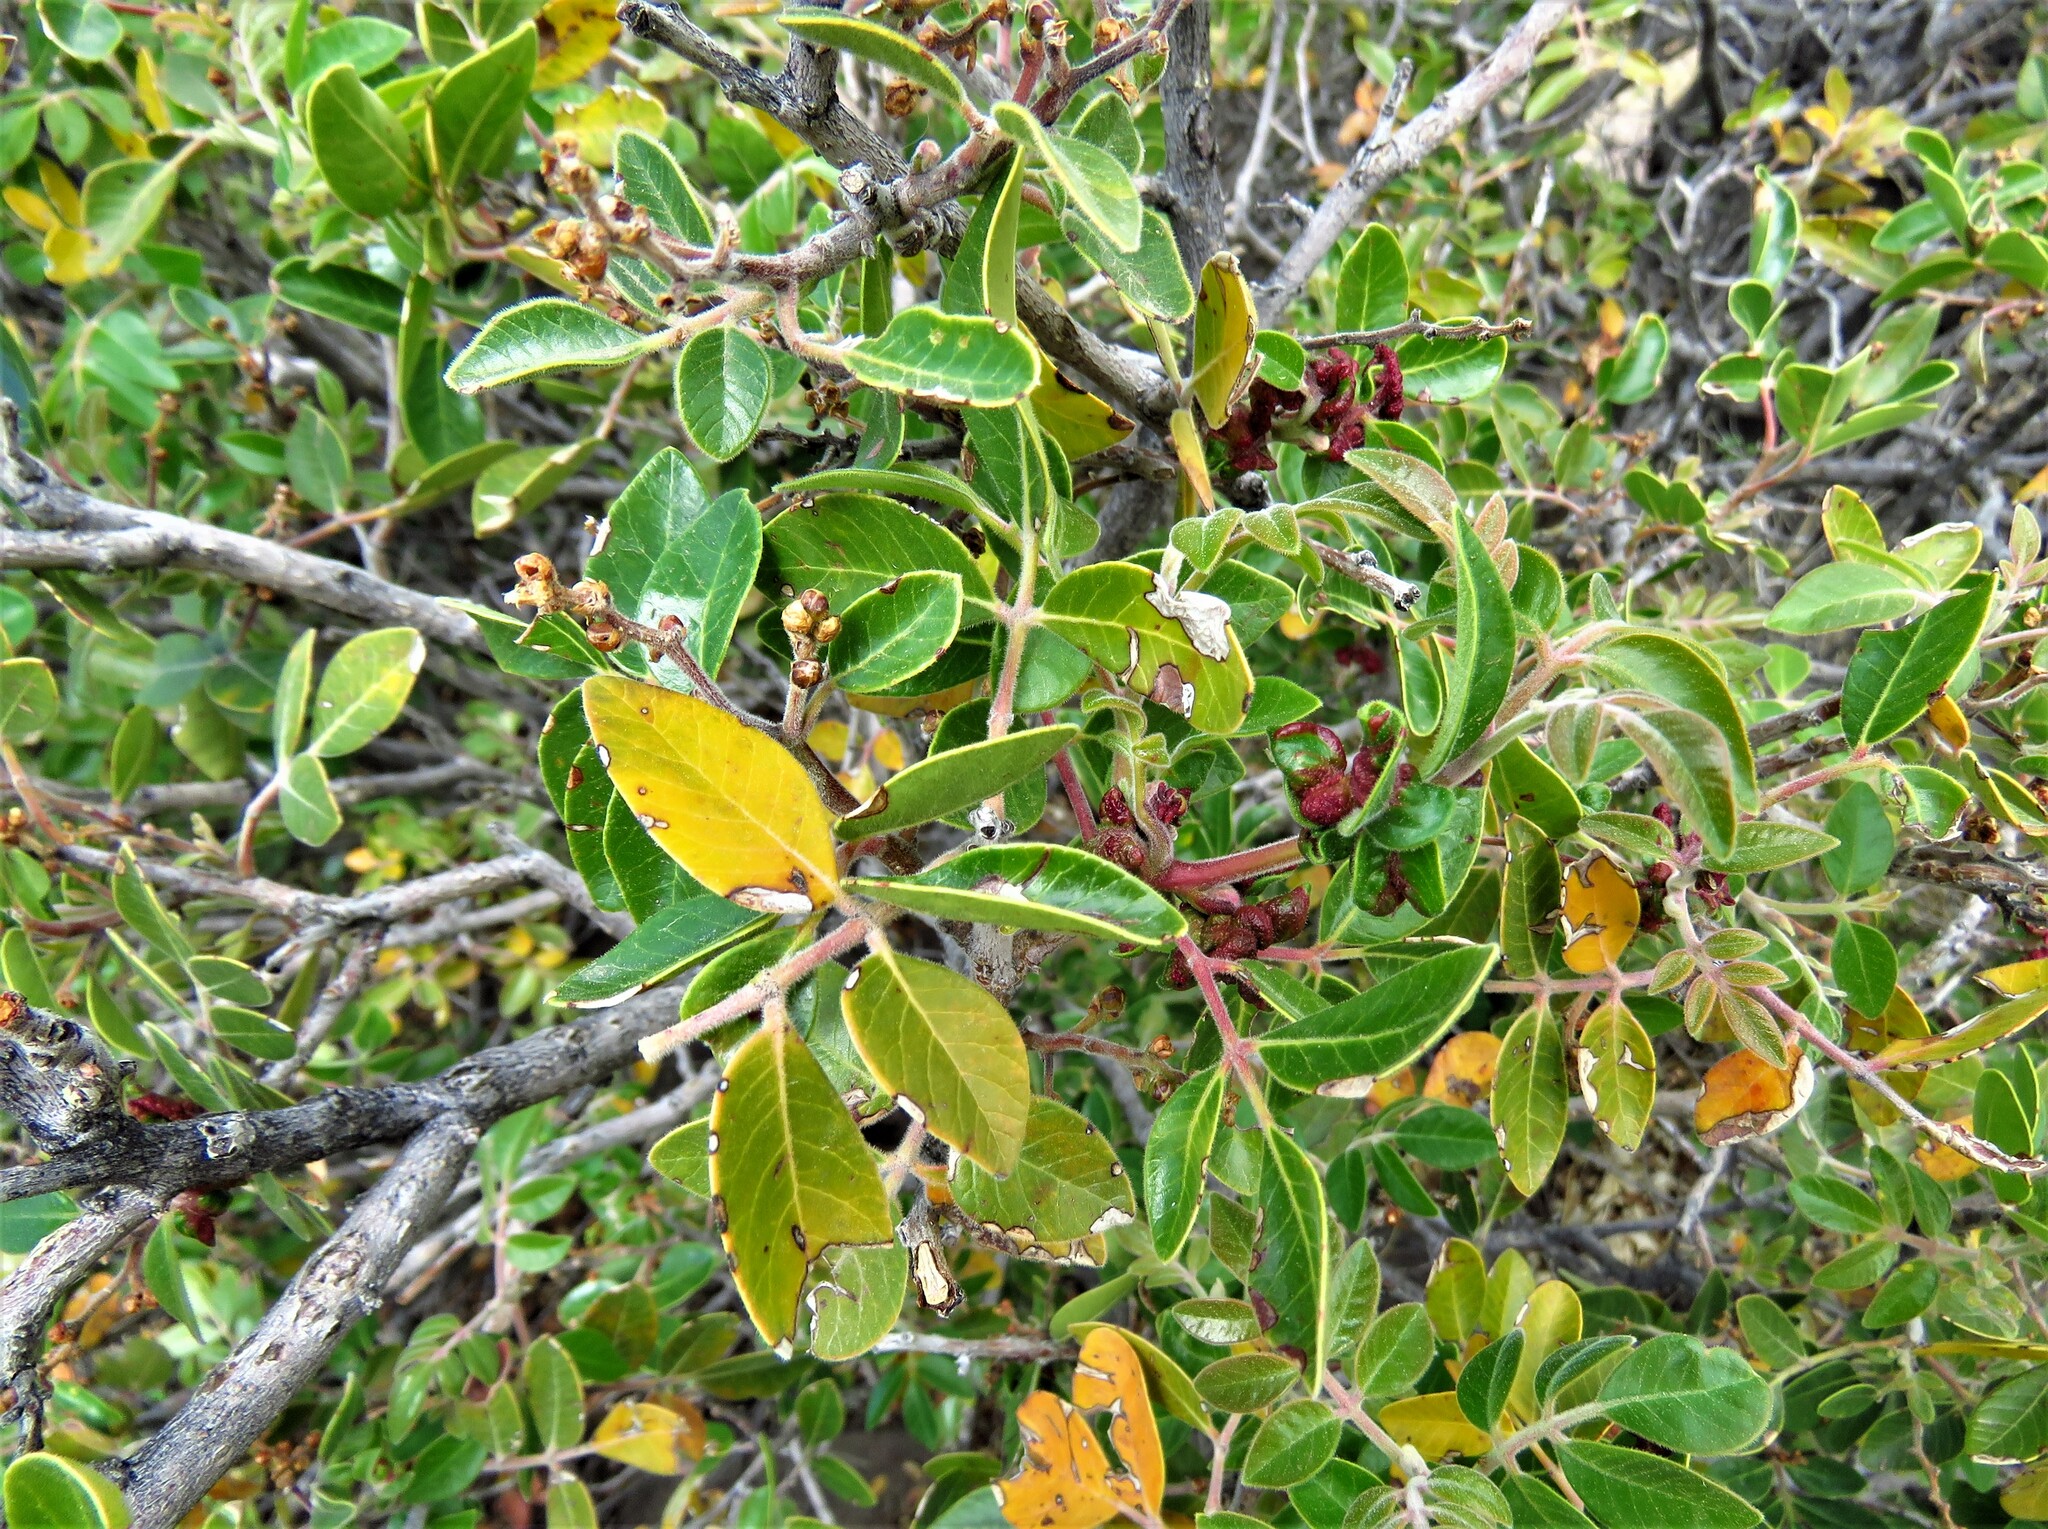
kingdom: Plantae
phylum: Tracheophyta
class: Magnoliopsida
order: Sapindales
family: Anacardiaceae
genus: Rhus
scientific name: Rhus virens
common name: Evergreen sumac
